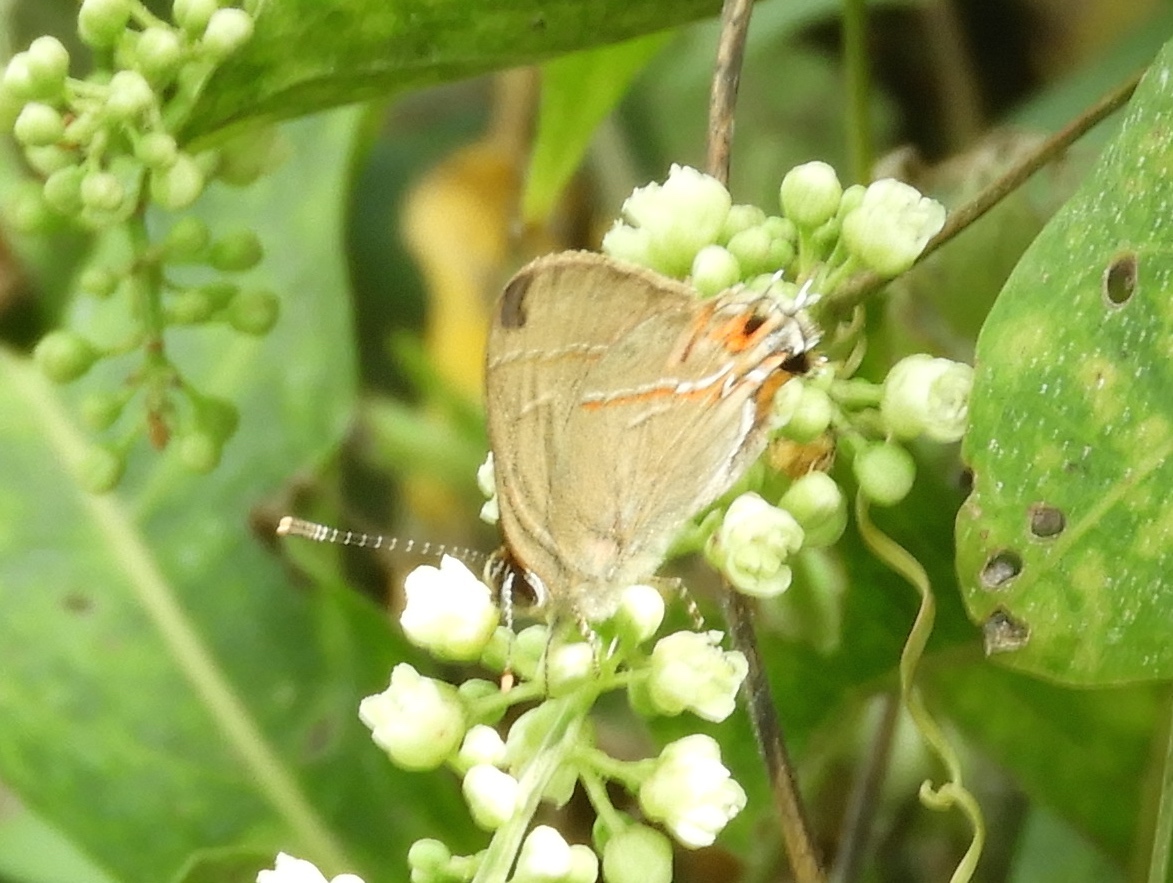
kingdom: Animalia
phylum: Arthropoda
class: Insecta
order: Lepidoptera
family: Lycaenidae
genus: Electrostrymon
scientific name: Electrostrymon endymion
